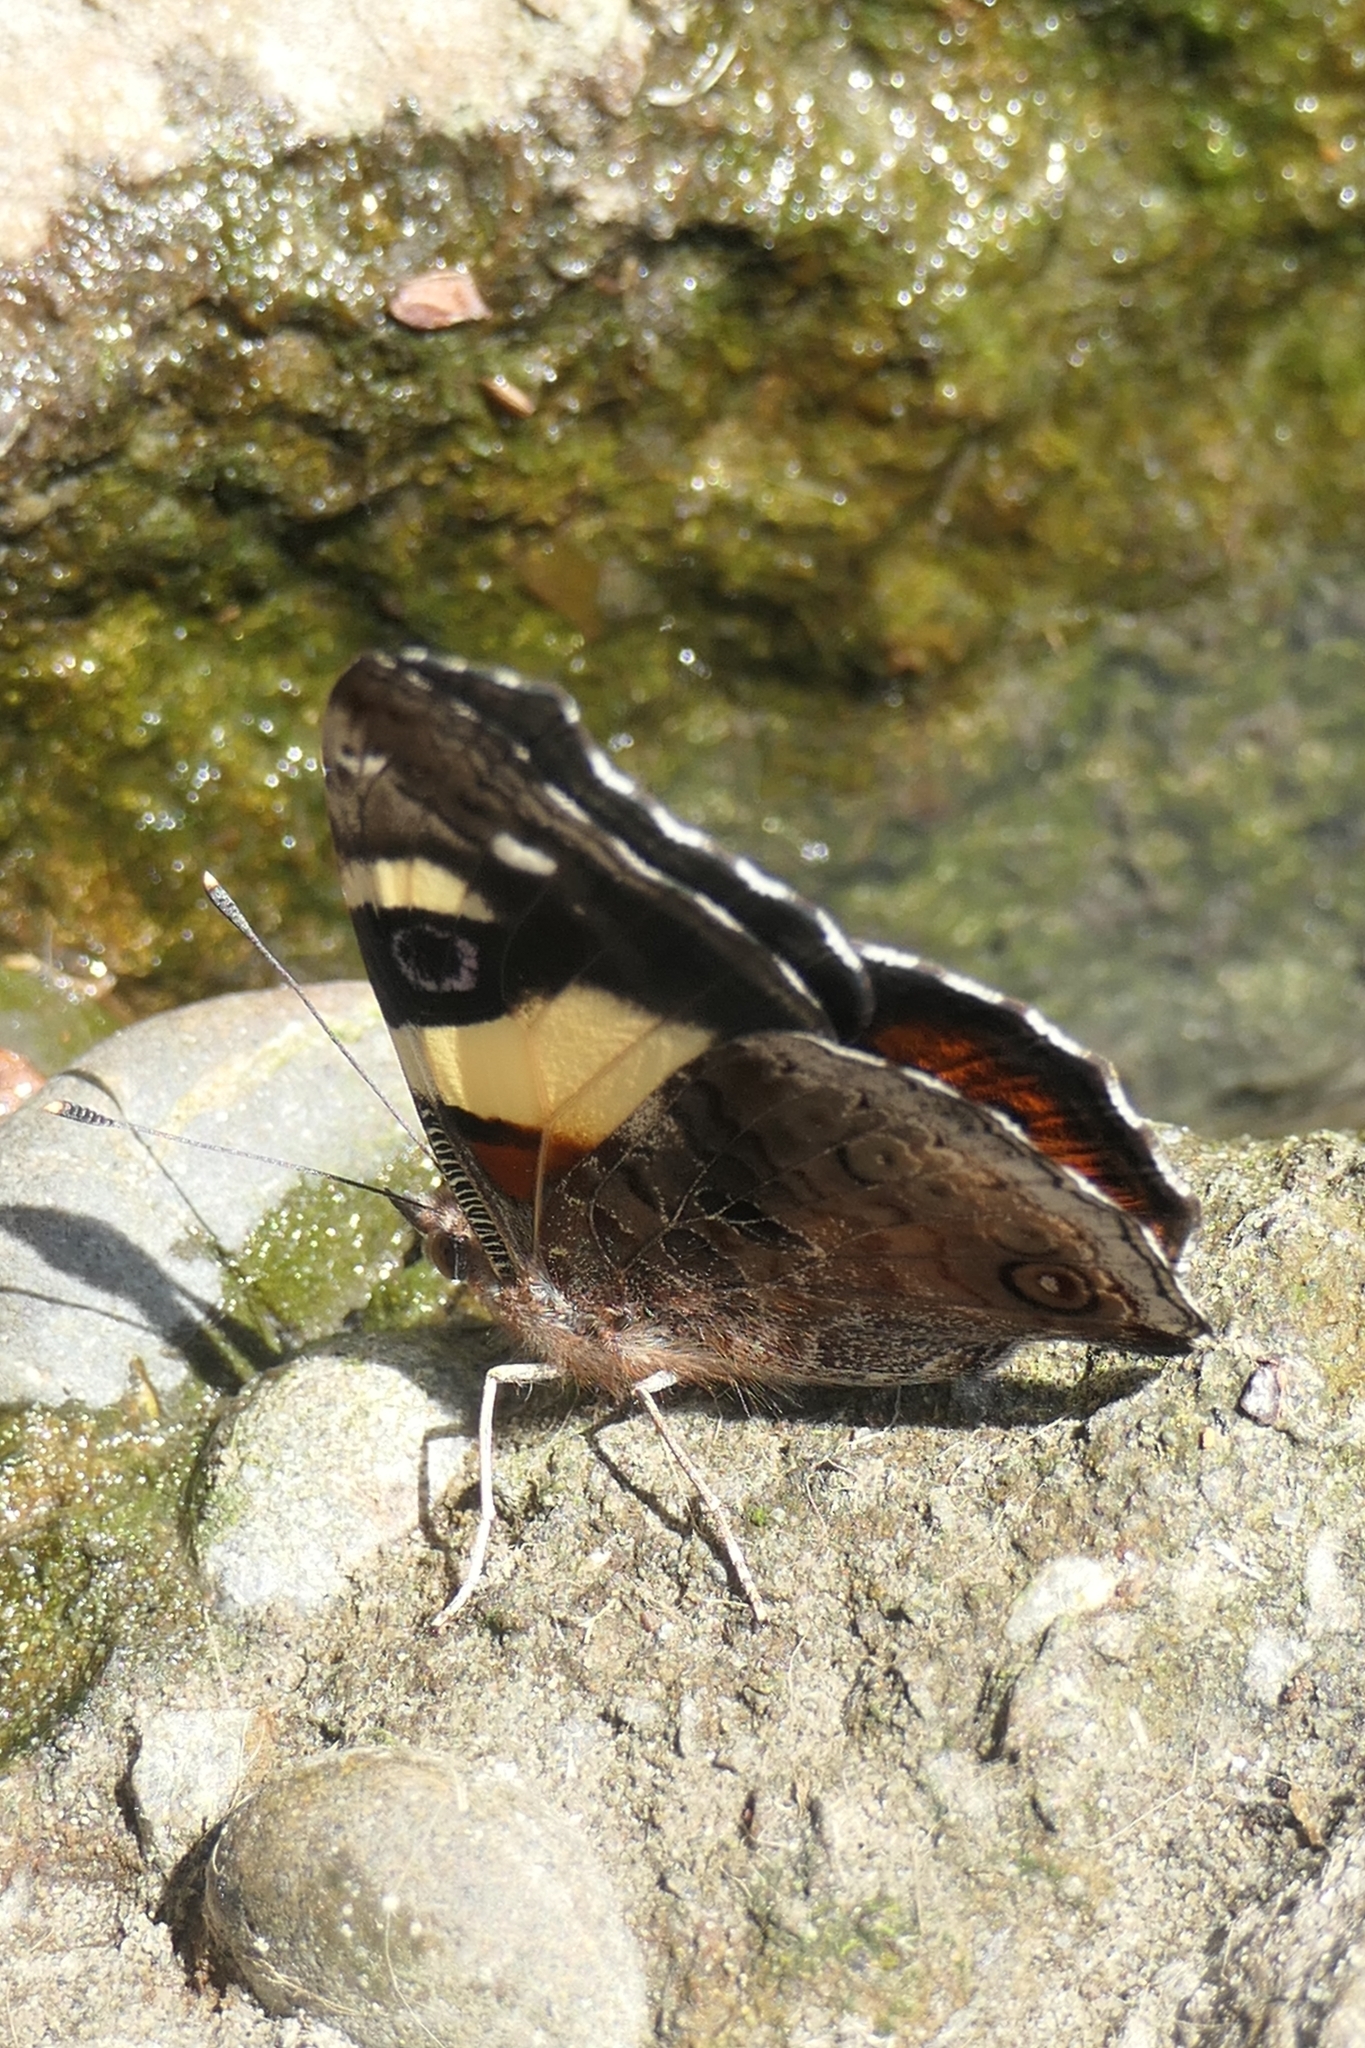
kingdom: Animalia
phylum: Arthropoda
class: Insecta
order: Lepidoptera
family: Nymphalidae
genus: Vanessa
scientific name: Vanessa itea
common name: Yellow admiral
